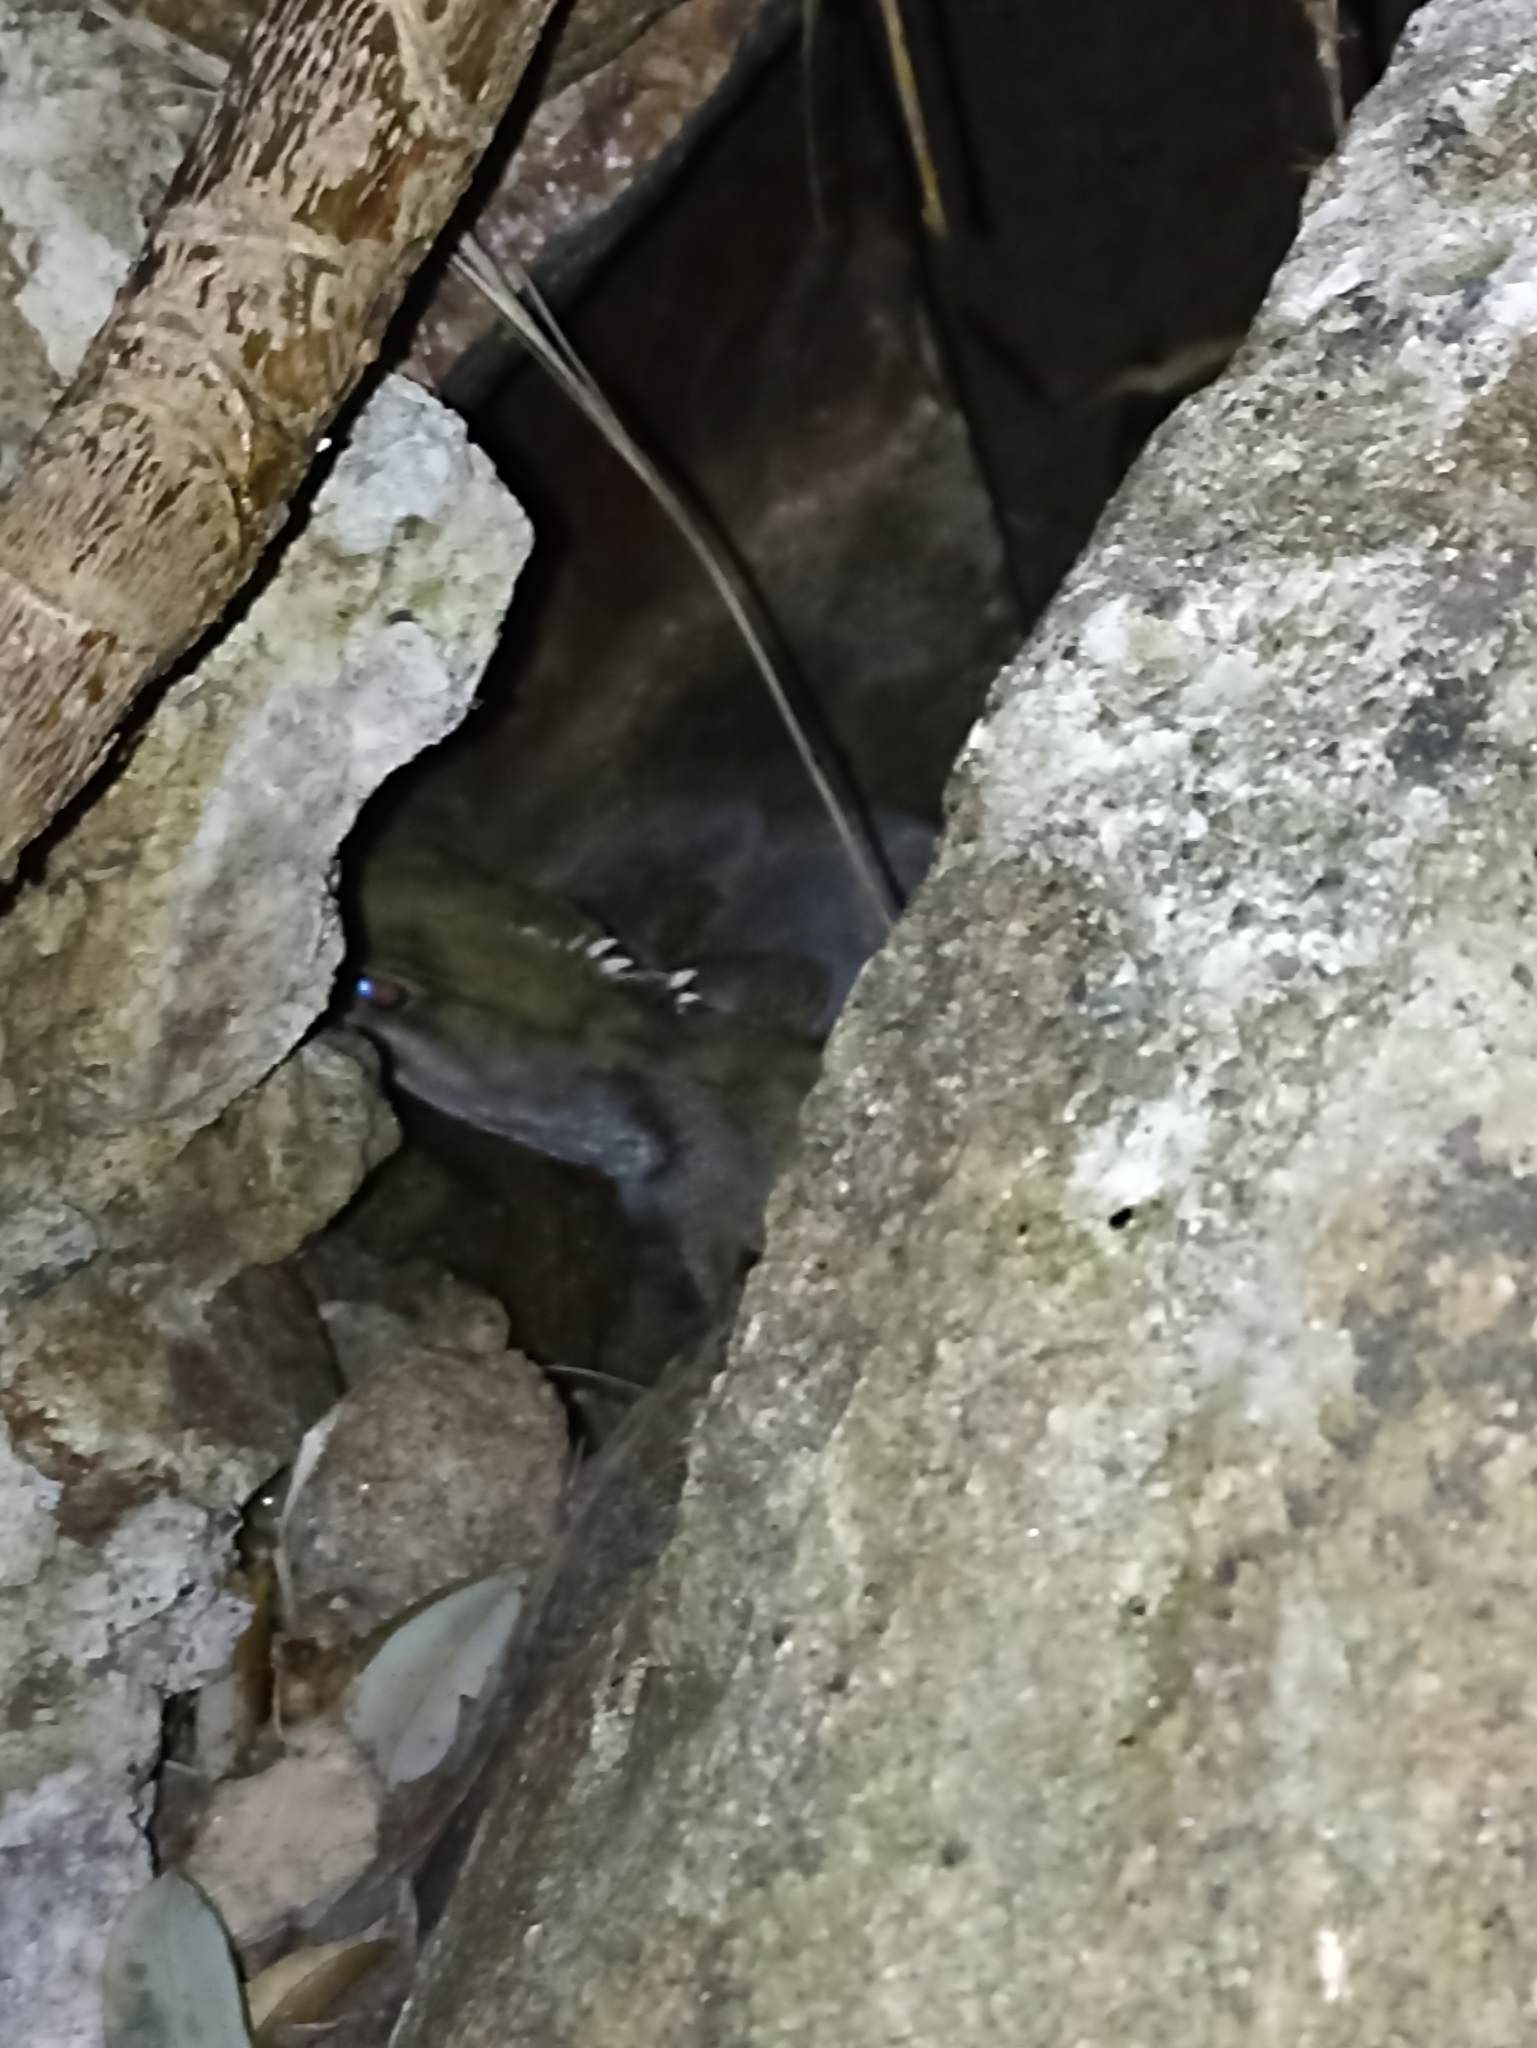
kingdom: Animalia
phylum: Chordata
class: Sphenodontia
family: Sphenodontidae
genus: Sphenodon
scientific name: Sphenodon punctatus
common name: Tuatara
